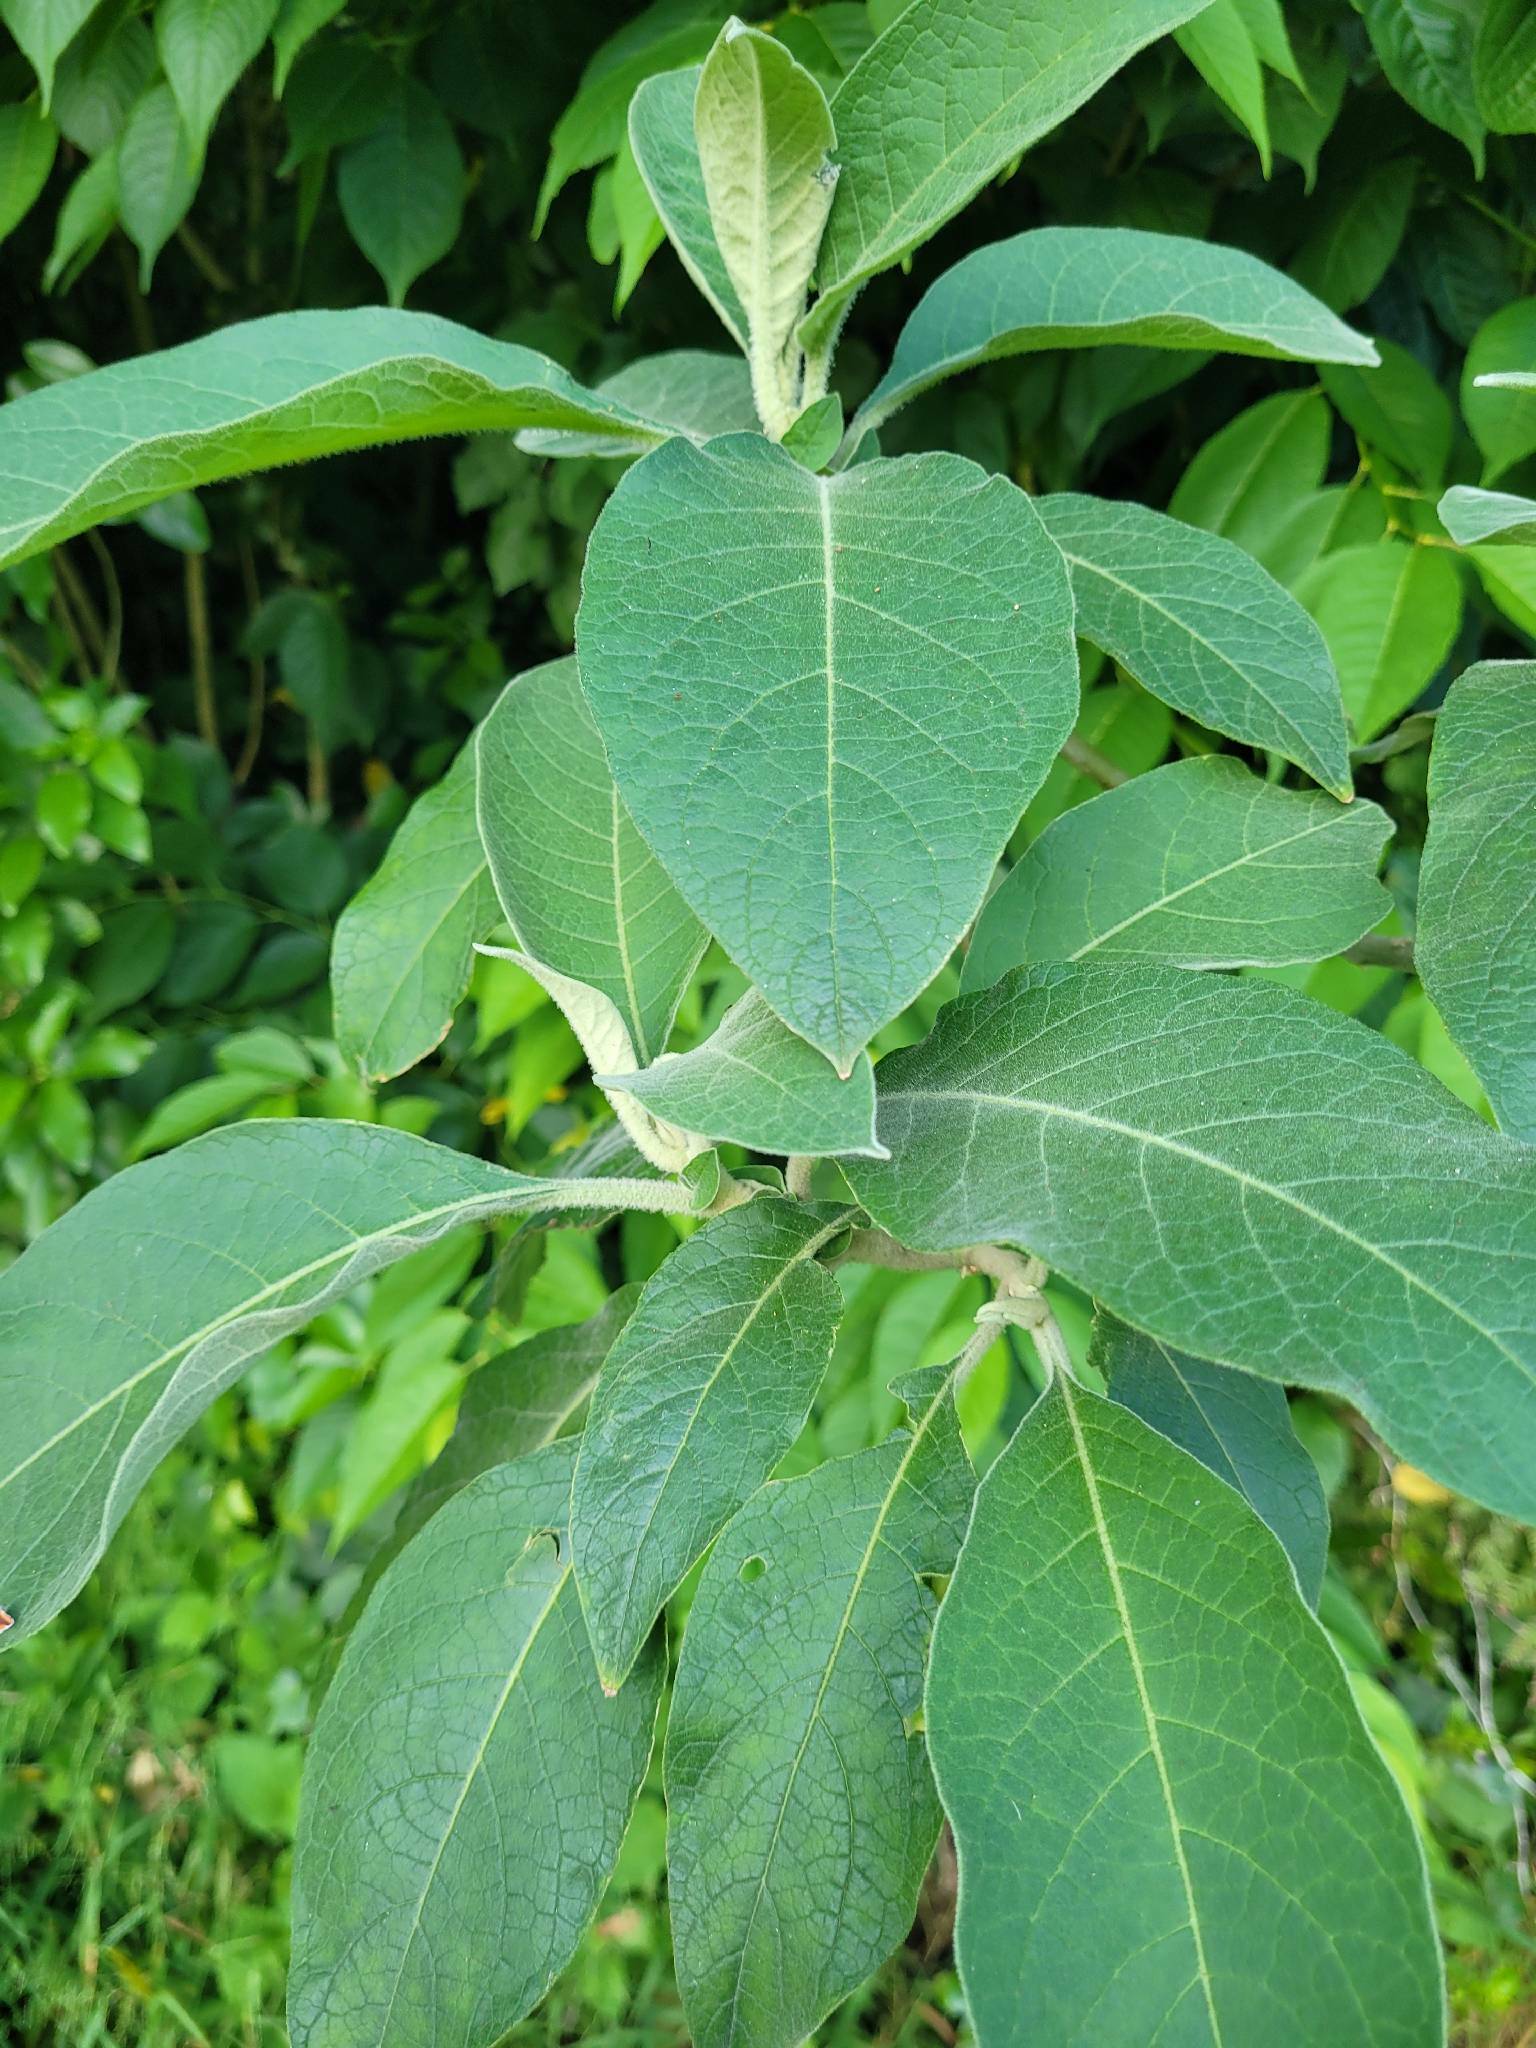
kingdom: Plantae
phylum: Tracheophyta
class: Magnoliopsida
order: Solanales
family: Solanaceae
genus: Solanum
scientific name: Solanum mauritianum
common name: Earleaf nightshade
